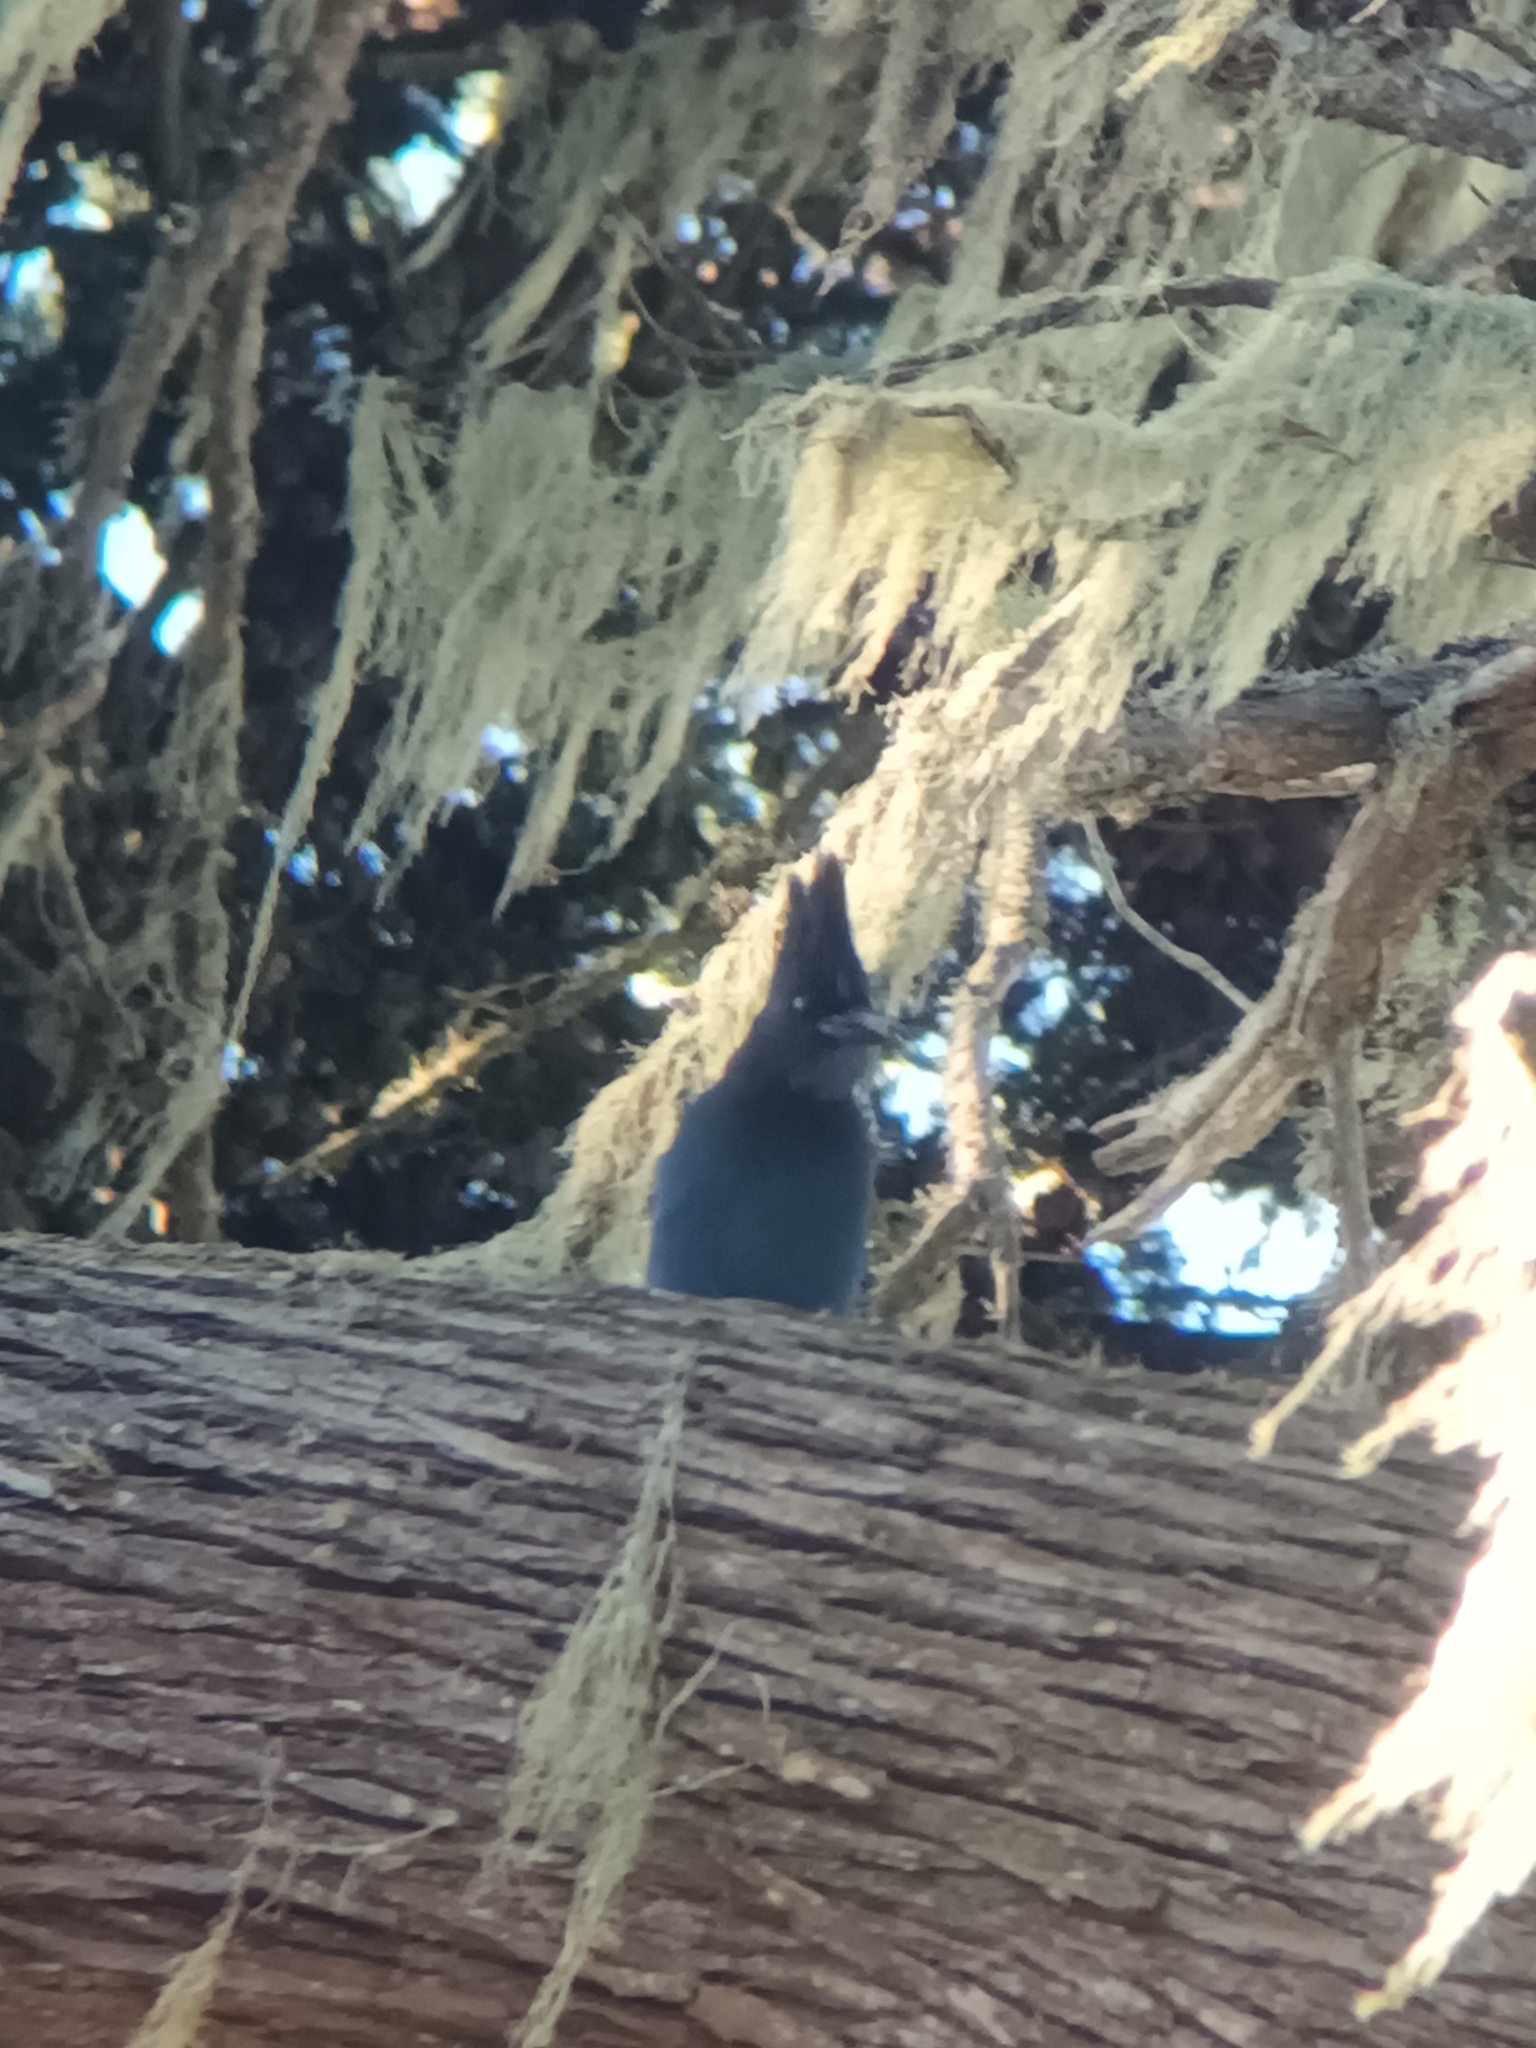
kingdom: Animalia
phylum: Chordata
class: Aves
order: Passeriformes
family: Corvidae
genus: Cyanocitta
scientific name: Cyanocitta stelleri
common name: Steller's jay
